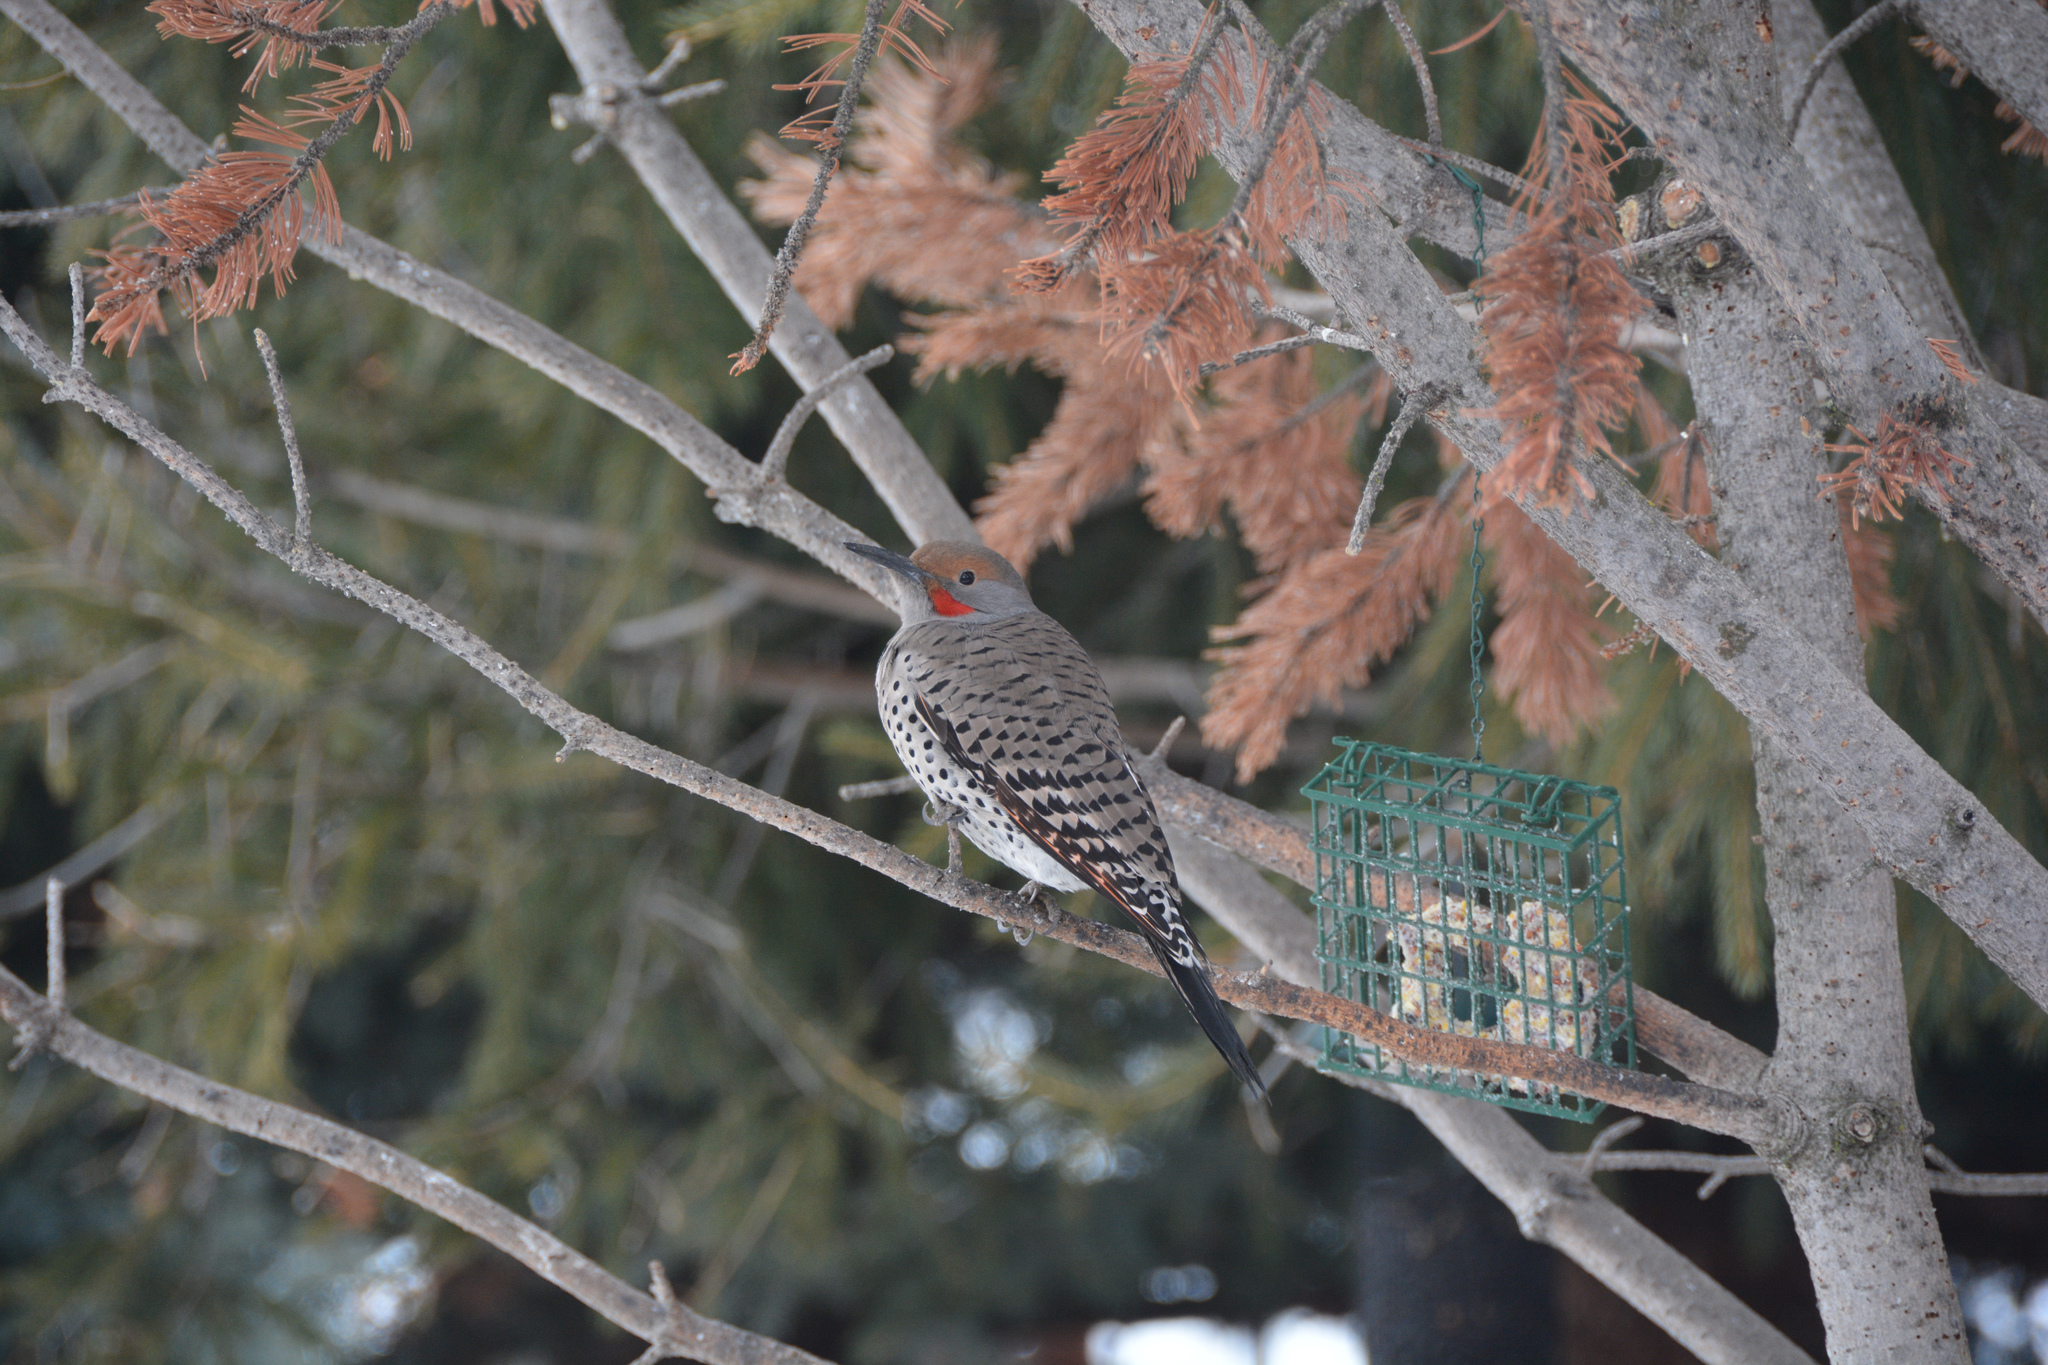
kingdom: Animalia
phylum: Chordata
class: Aves
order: Piciformes
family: Picidae
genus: Colaptes
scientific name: Colaptes auratus
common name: Northern flicker
